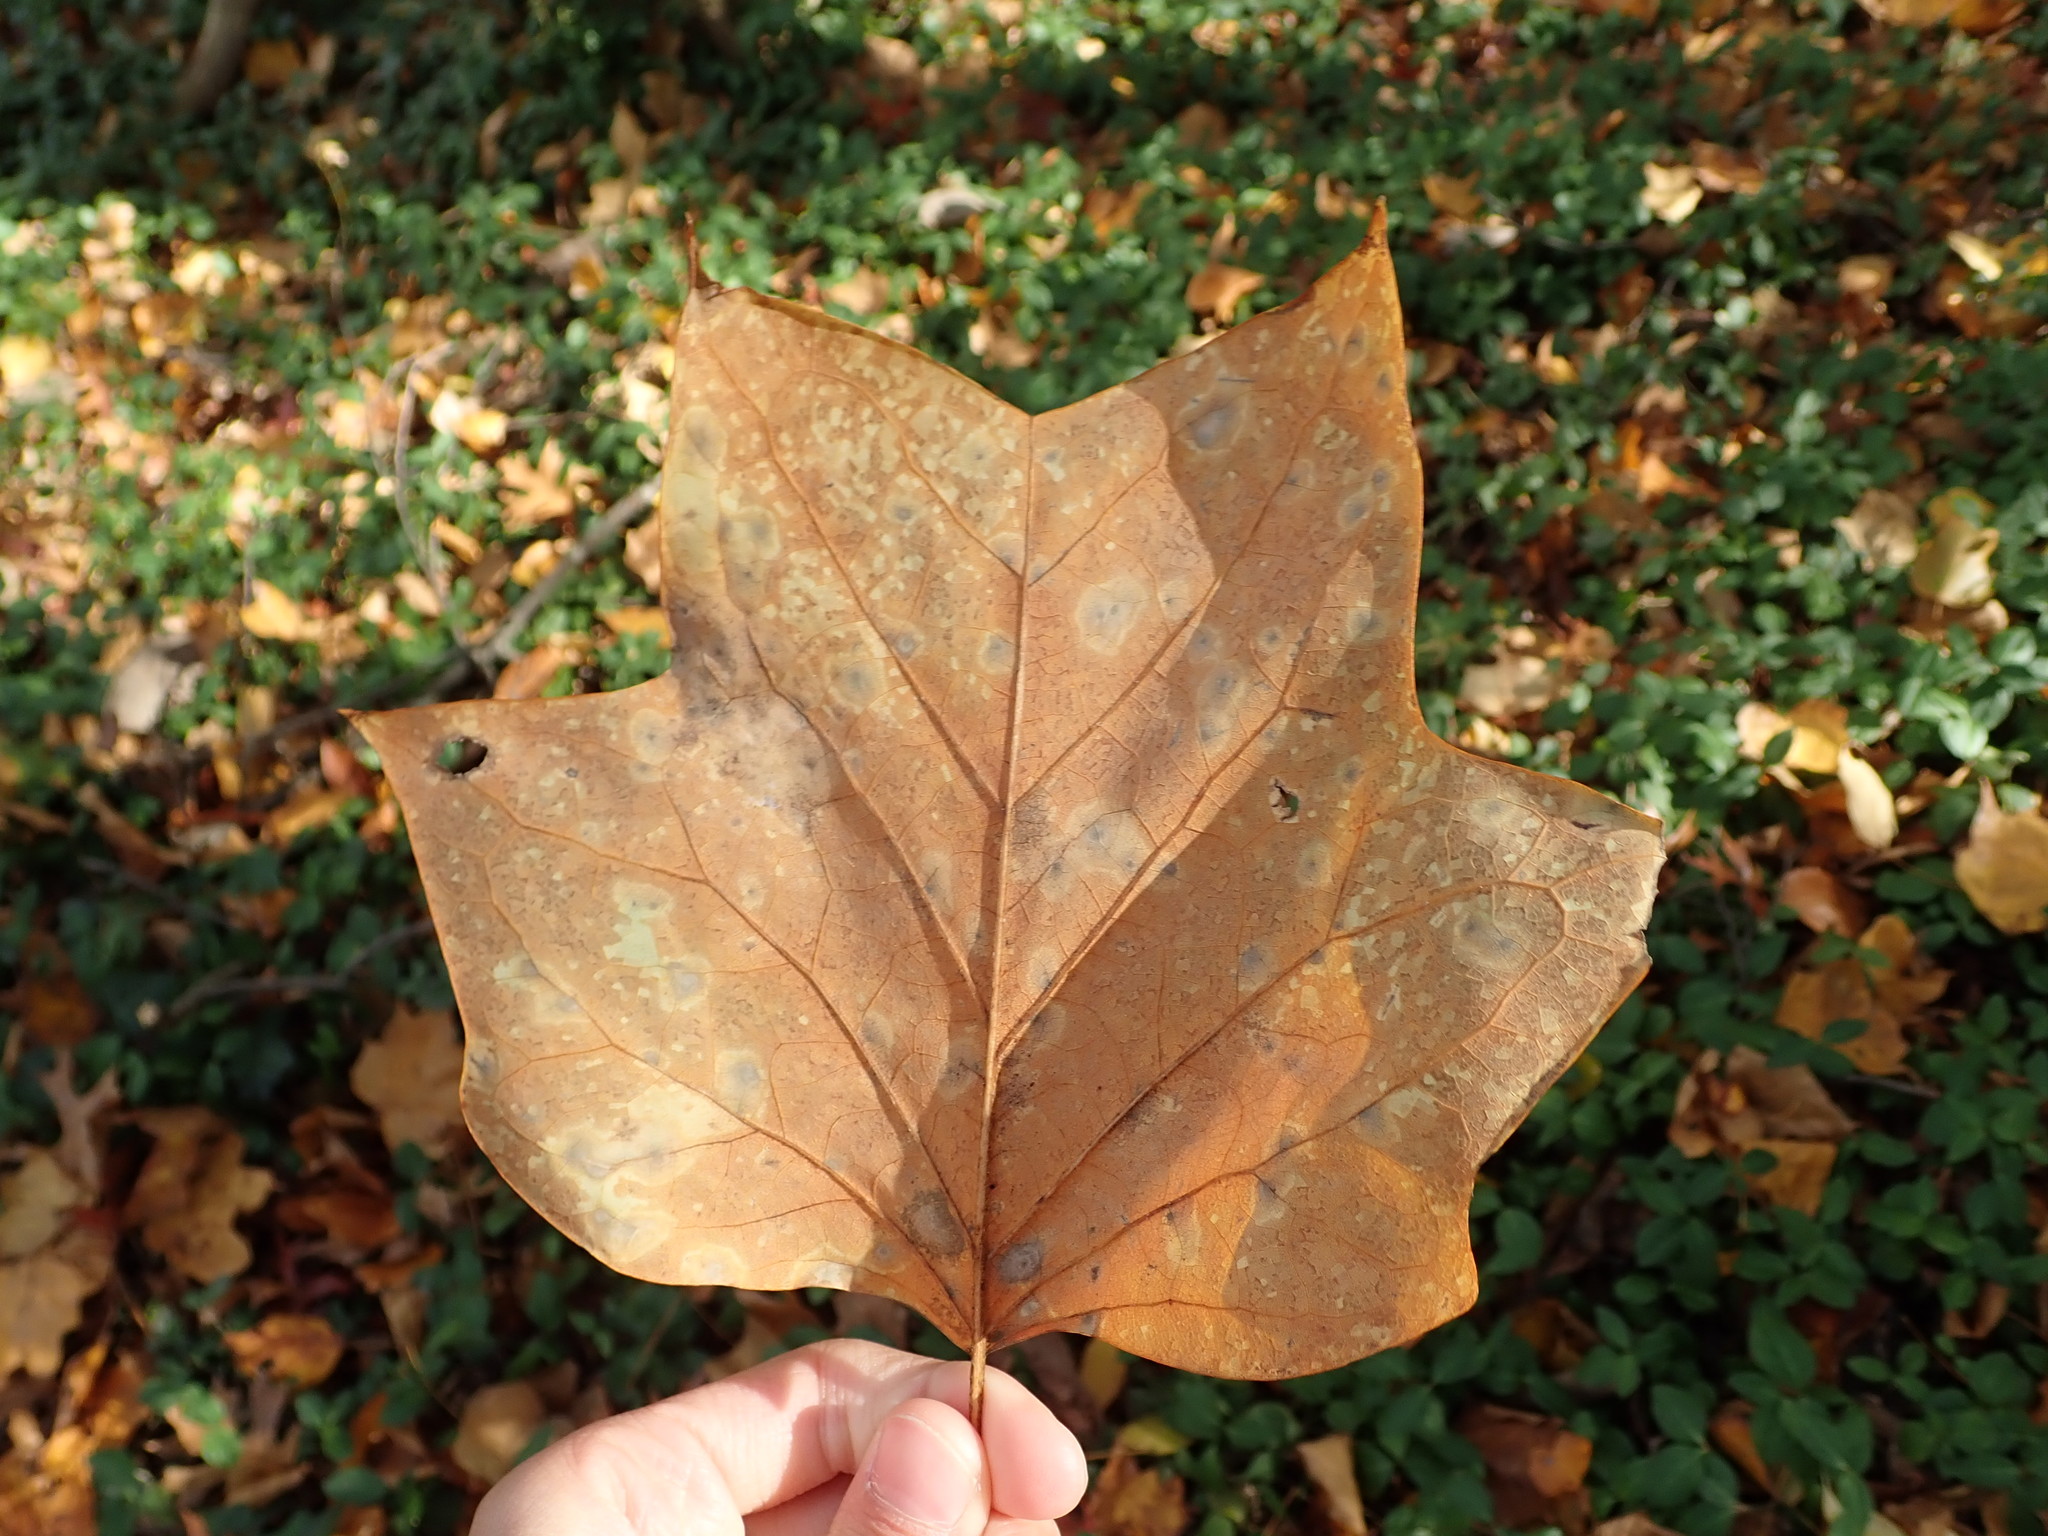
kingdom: Plantae
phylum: Tracheophyta
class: Magnoliopsida
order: Magnoliales
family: Magnoliaceae
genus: Liriodendron
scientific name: Liriodendron tulipifera
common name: Tulip tree
